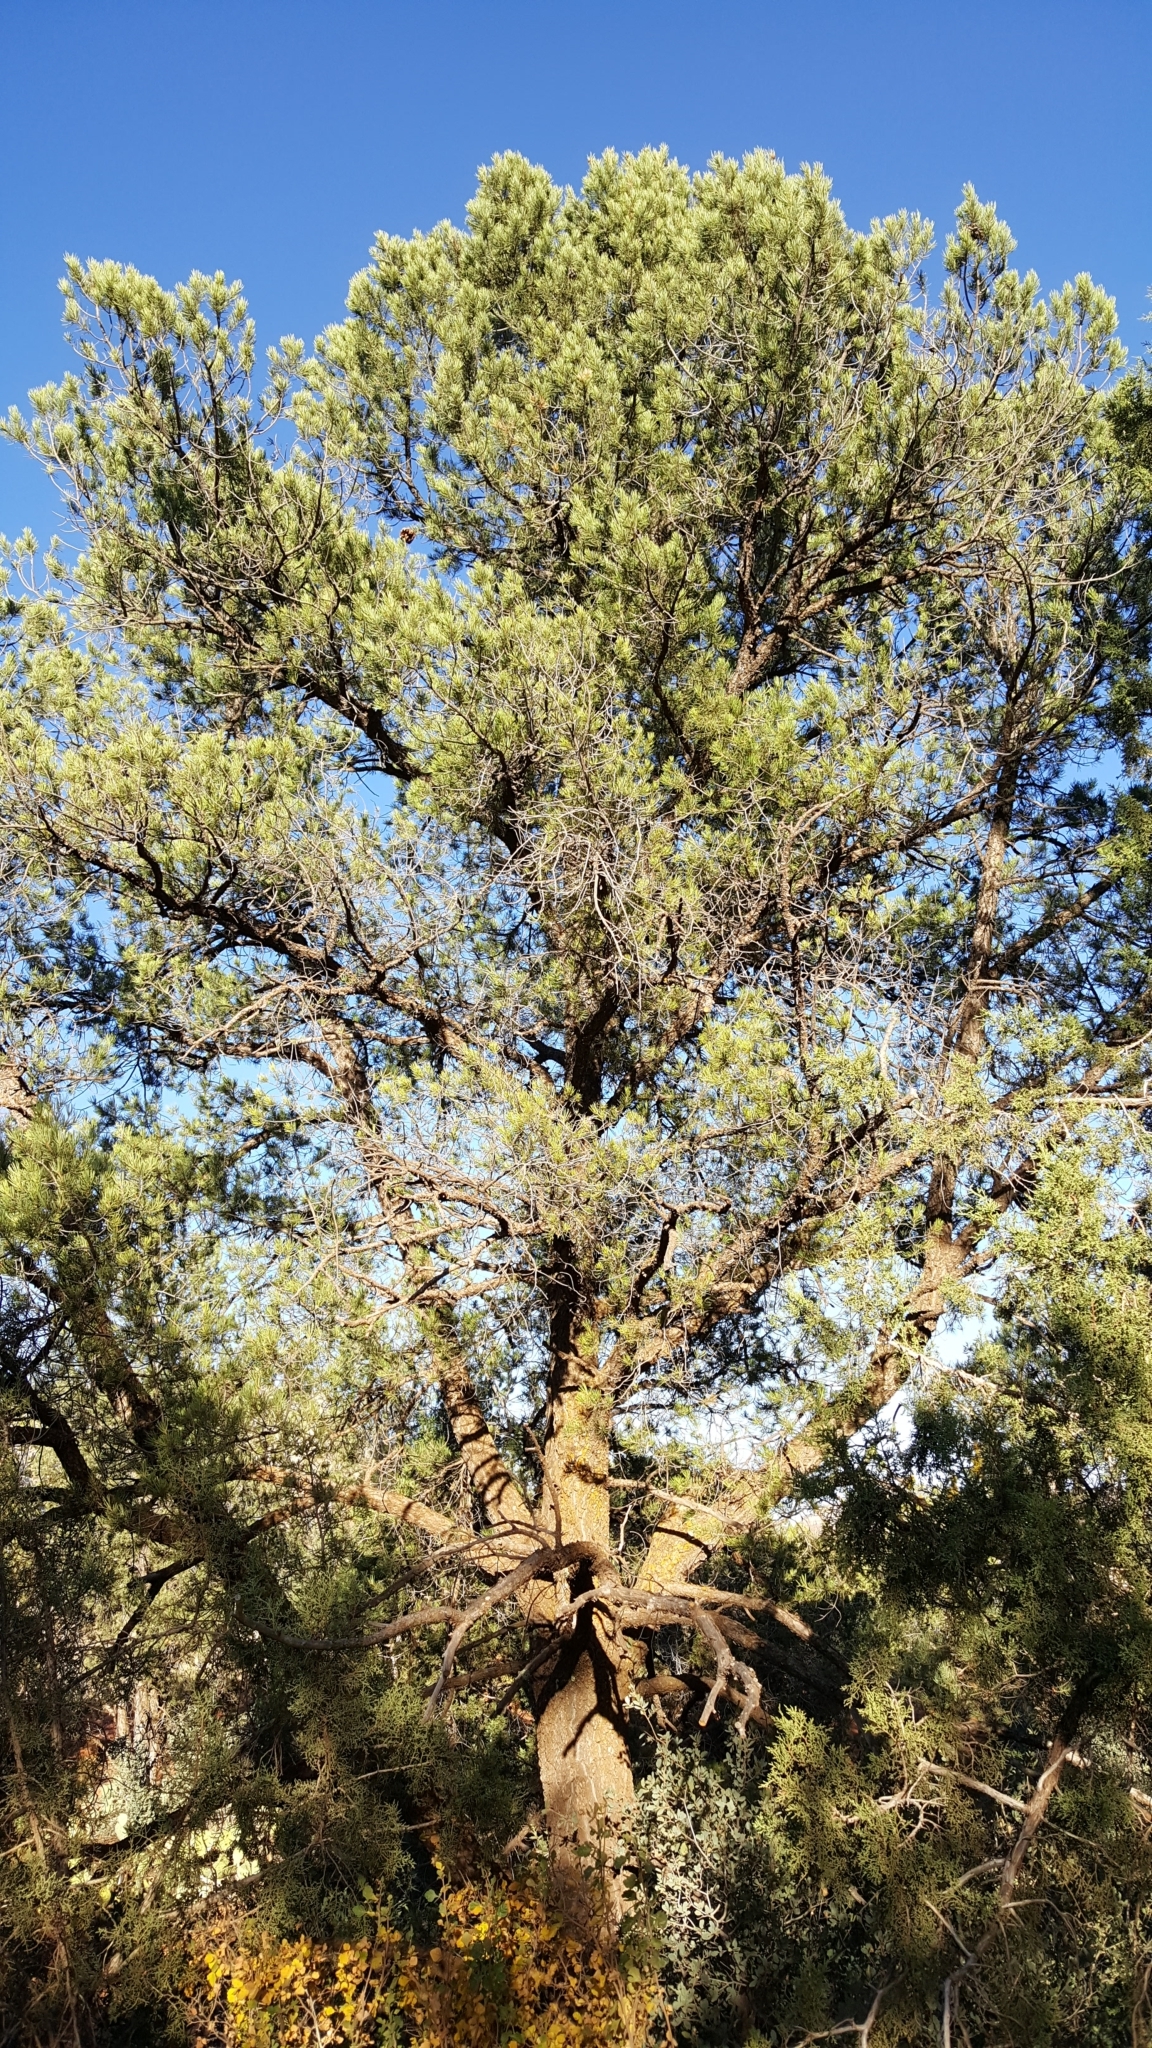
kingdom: Plantae
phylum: Tracheophyta
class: Pinopsida
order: Pinales
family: Pinaceae
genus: Pinus
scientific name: Pinus edulis
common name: Colorado pinyon
